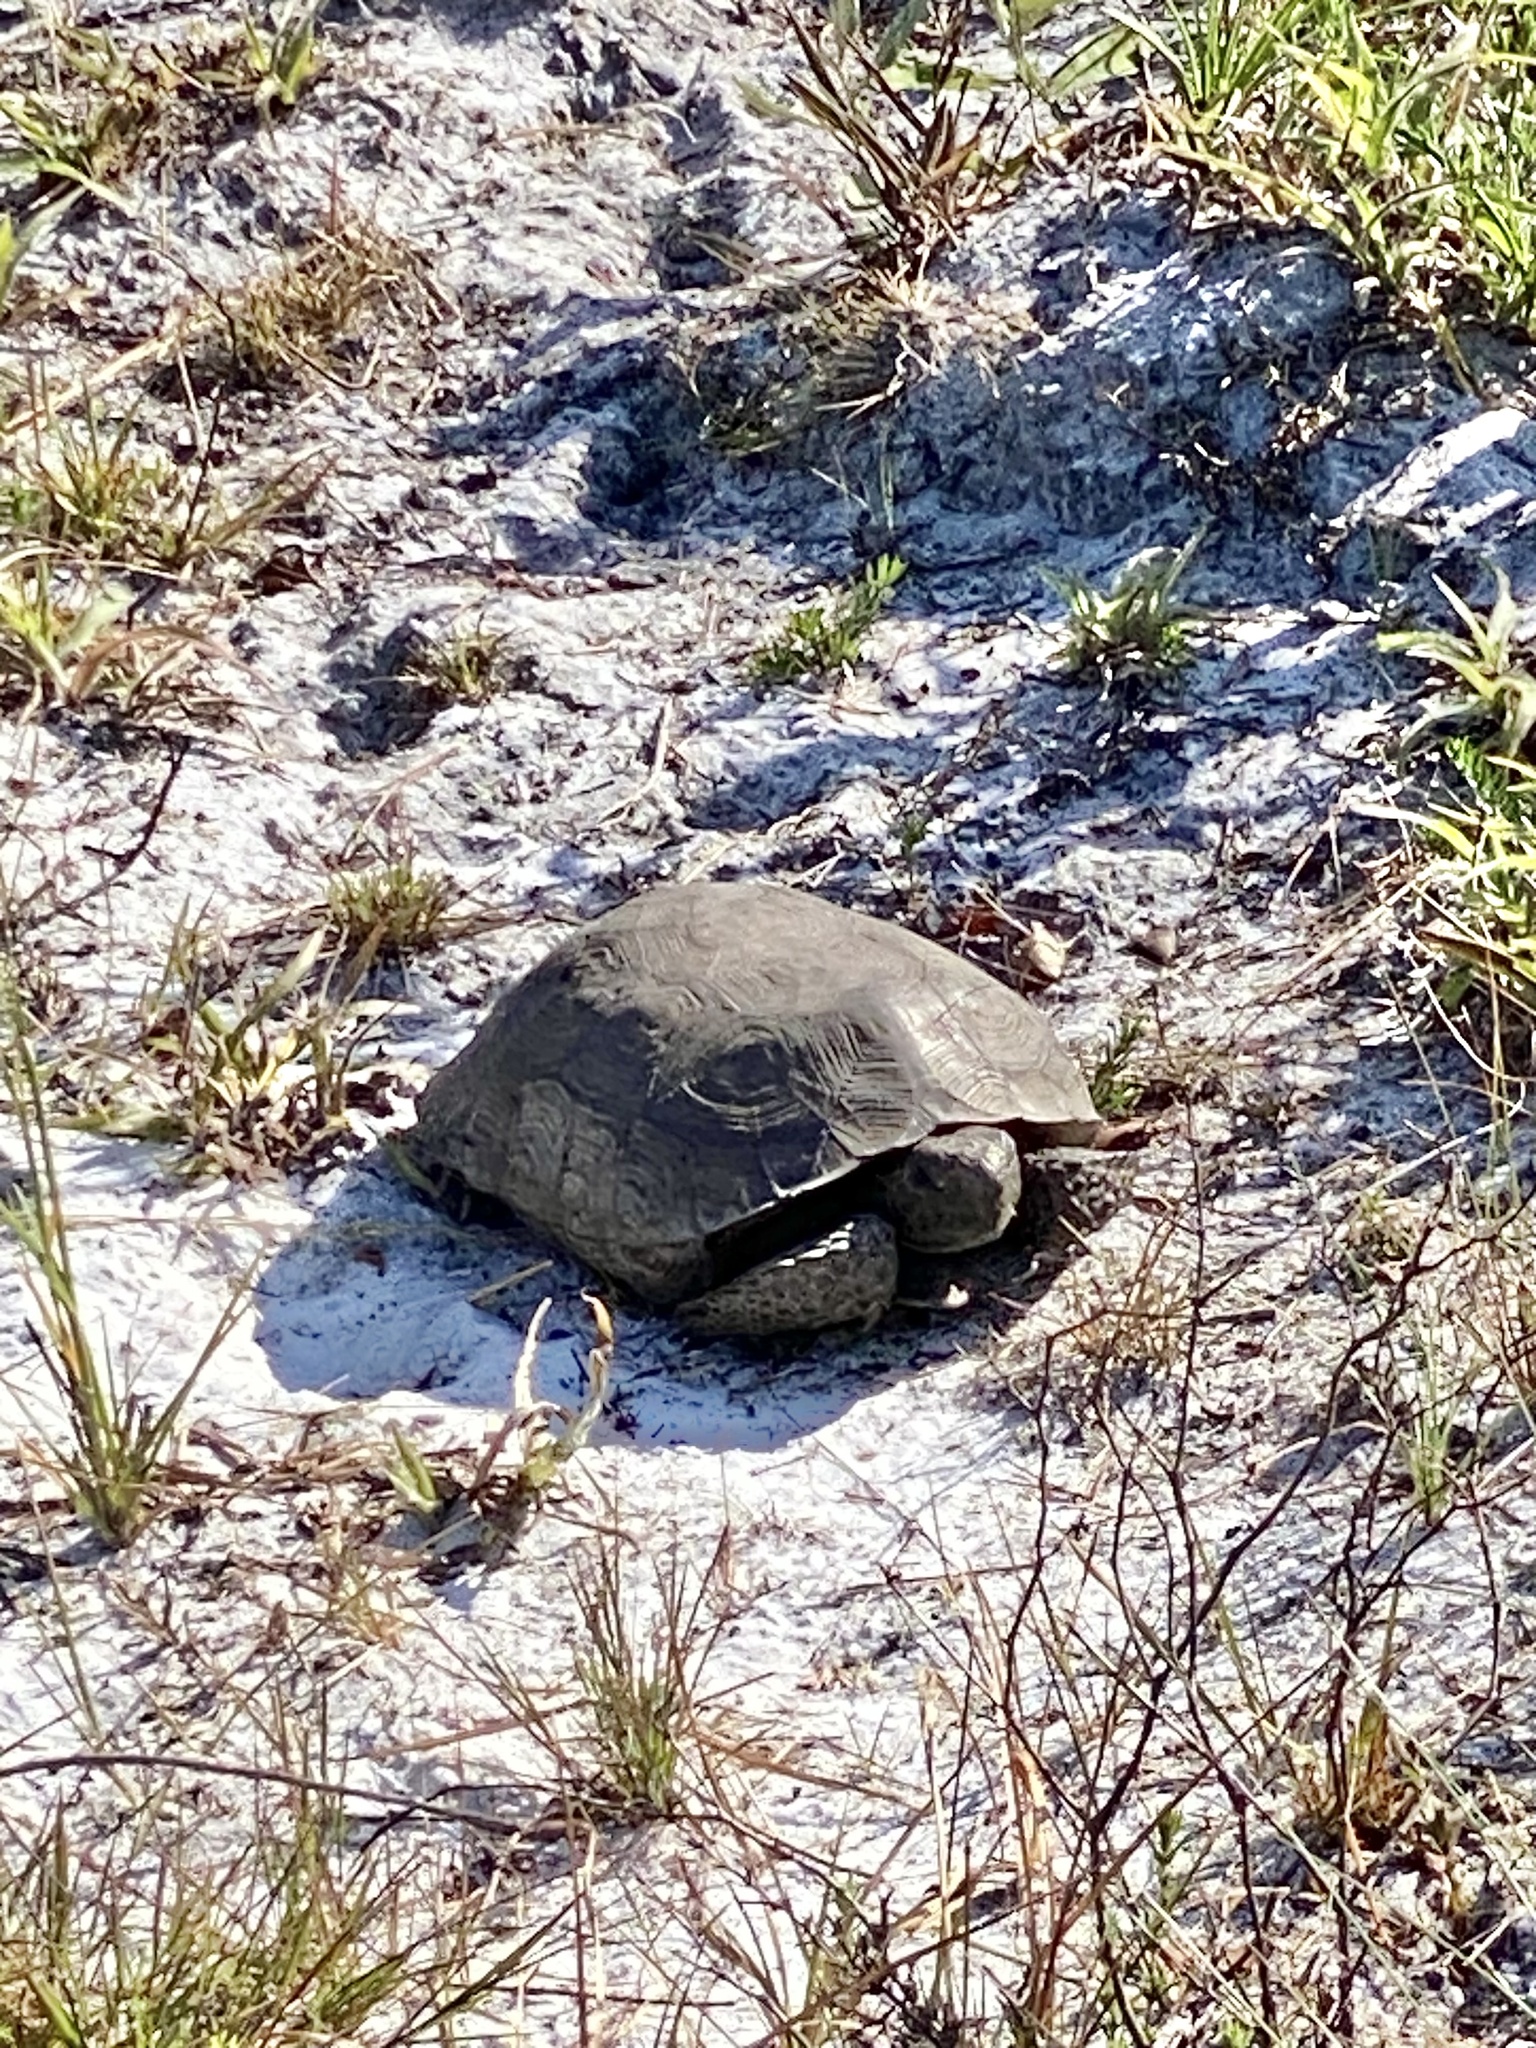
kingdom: Animalia
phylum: Chordata
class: Testudines
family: Testudinidae
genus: Gopherus
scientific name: Gopherus polyphemus
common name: Florida gopher tortoise
